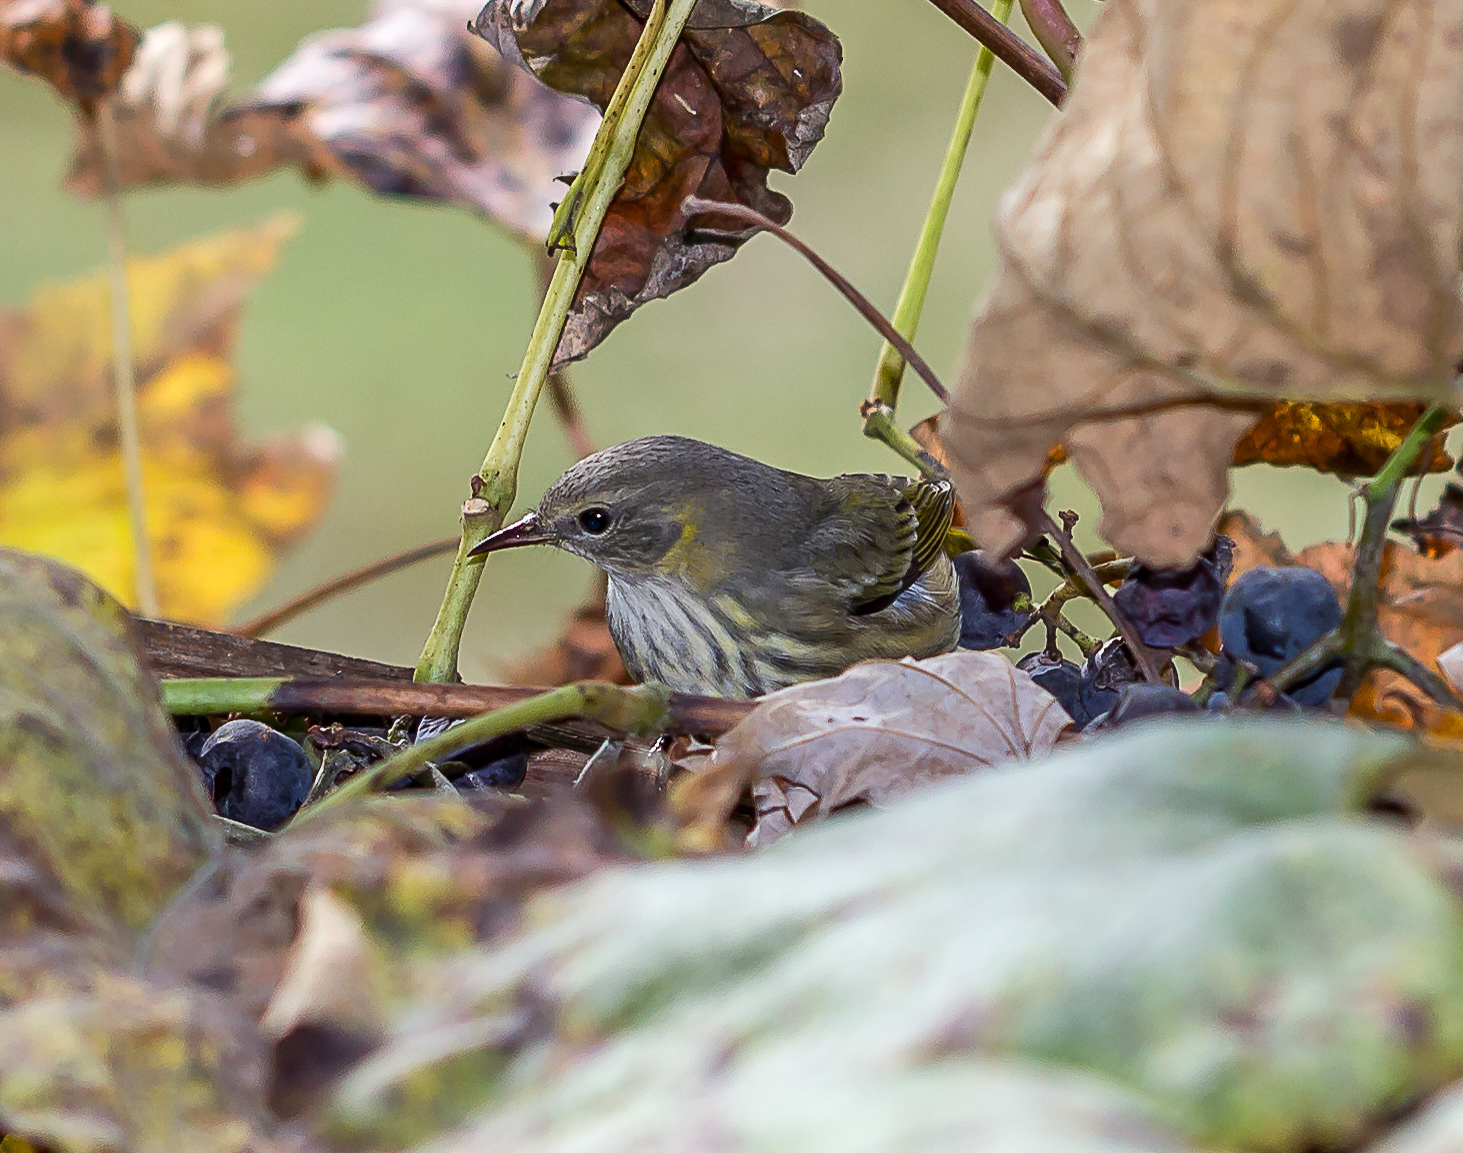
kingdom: Animalia
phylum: Chordata
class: Aves
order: Passeriformes
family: Parulidae
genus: Setophaga
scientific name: Setophaga tigrina
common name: Cape may warbler
